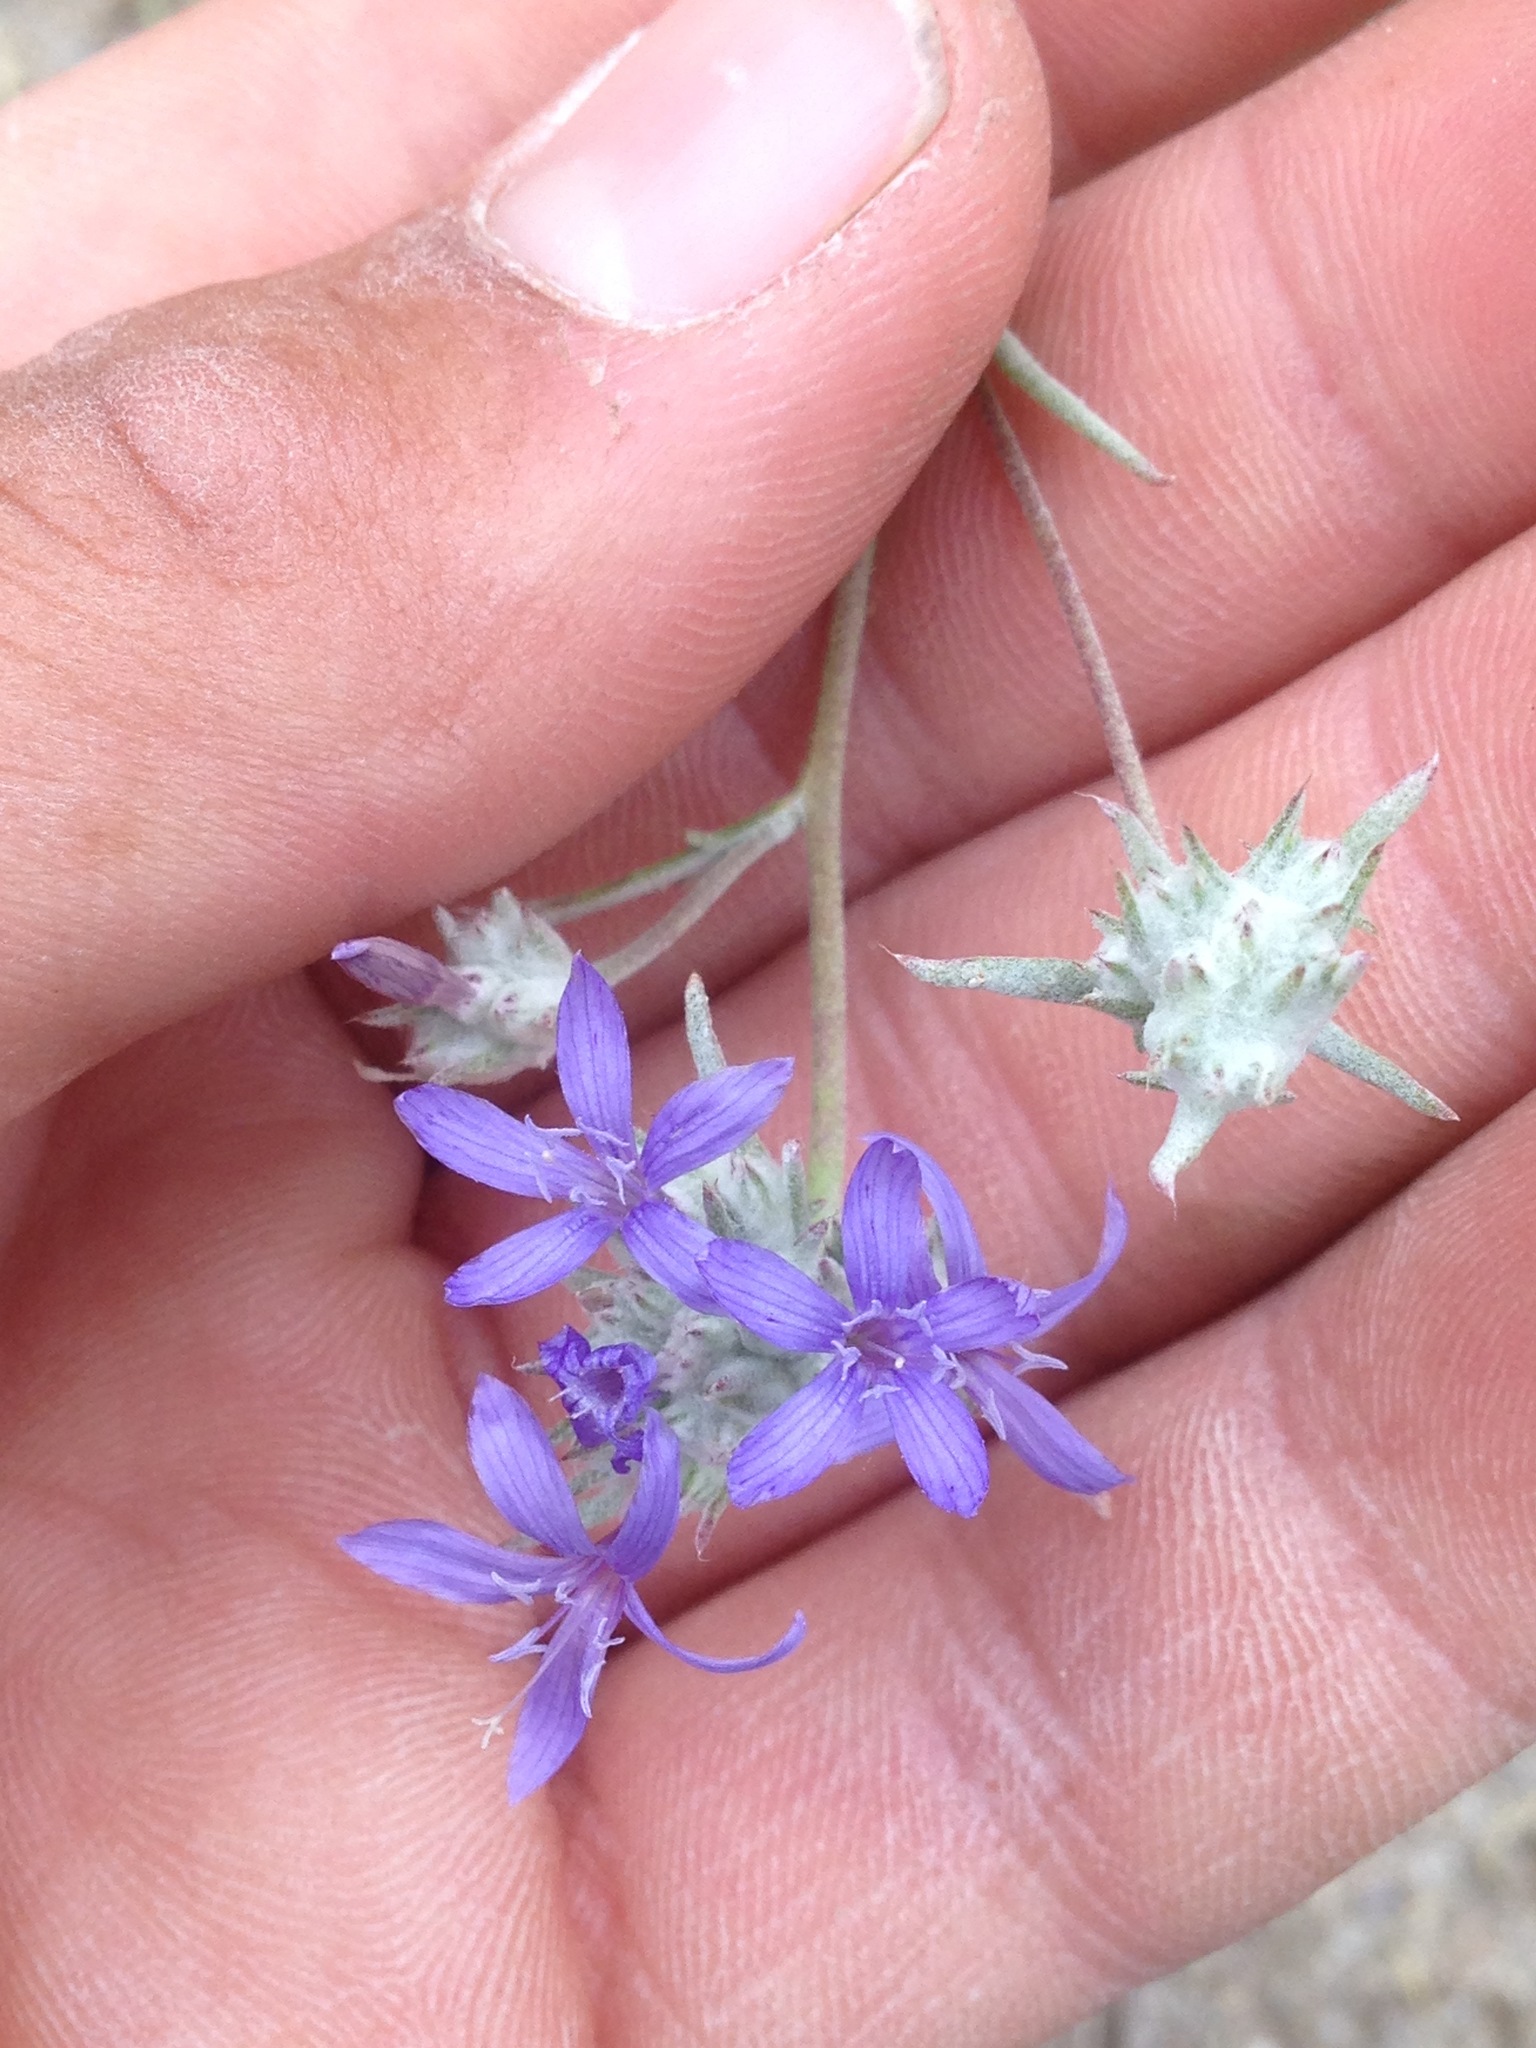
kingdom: Plantae
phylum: Tracheophyta
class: Magnoliopsida
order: Ericales
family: Polemoniaceae
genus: Eriastrum
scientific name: Eriastrum densifolium
